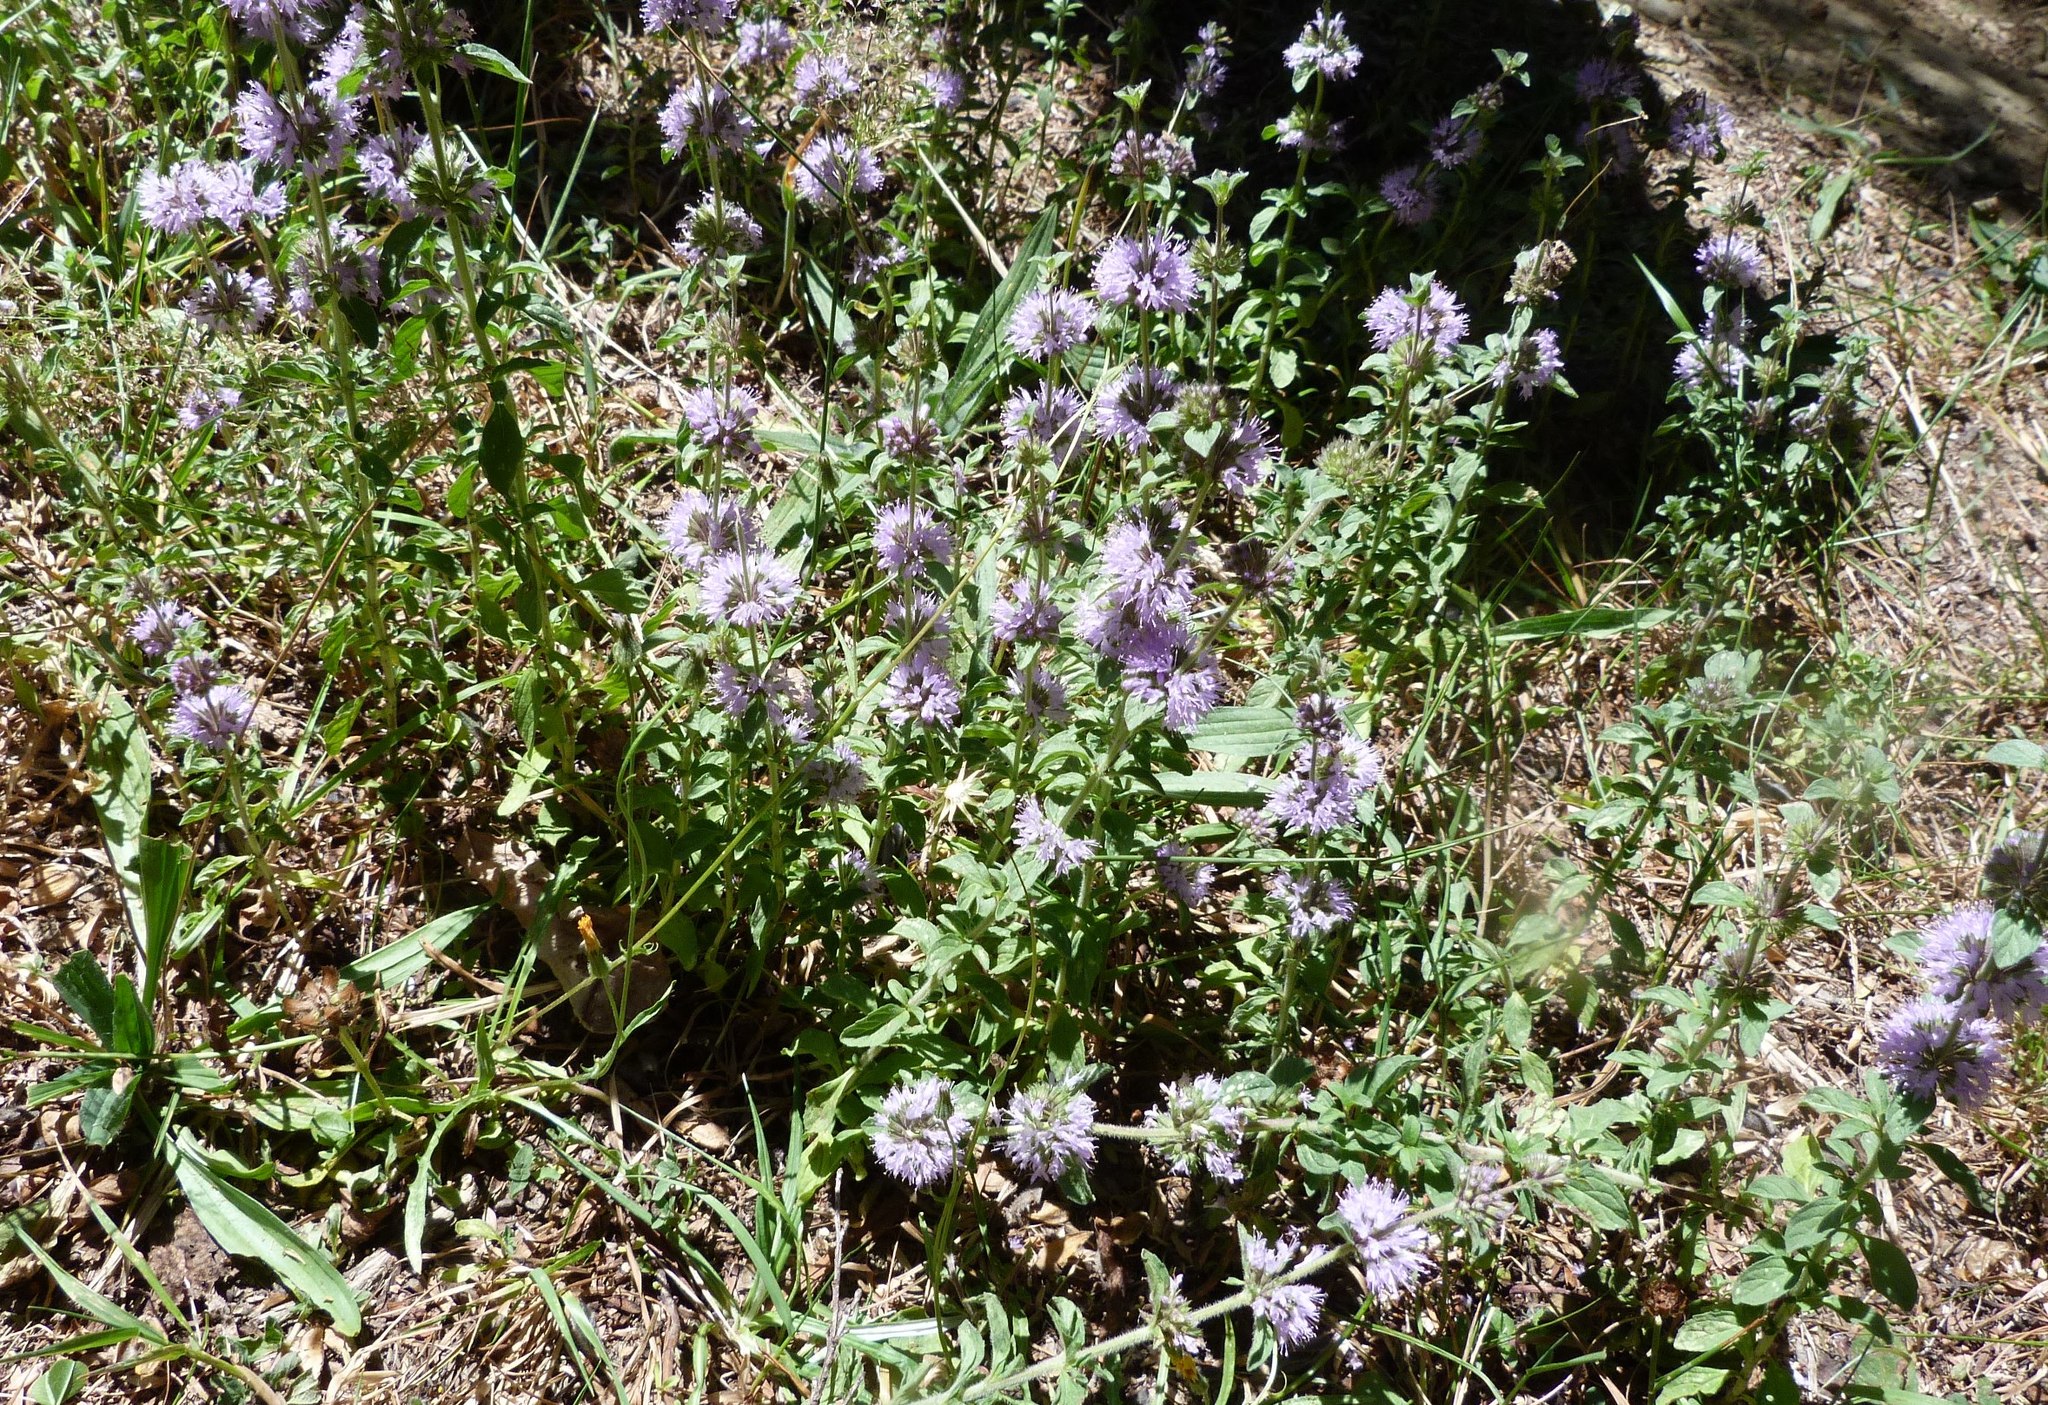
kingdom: Plantae
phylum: Tracheophyta
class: Magnoliopsida
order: Lamiales
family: Lamiaceae
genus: Mentha
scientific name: Mentha pulegium
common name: Pennyroyal
